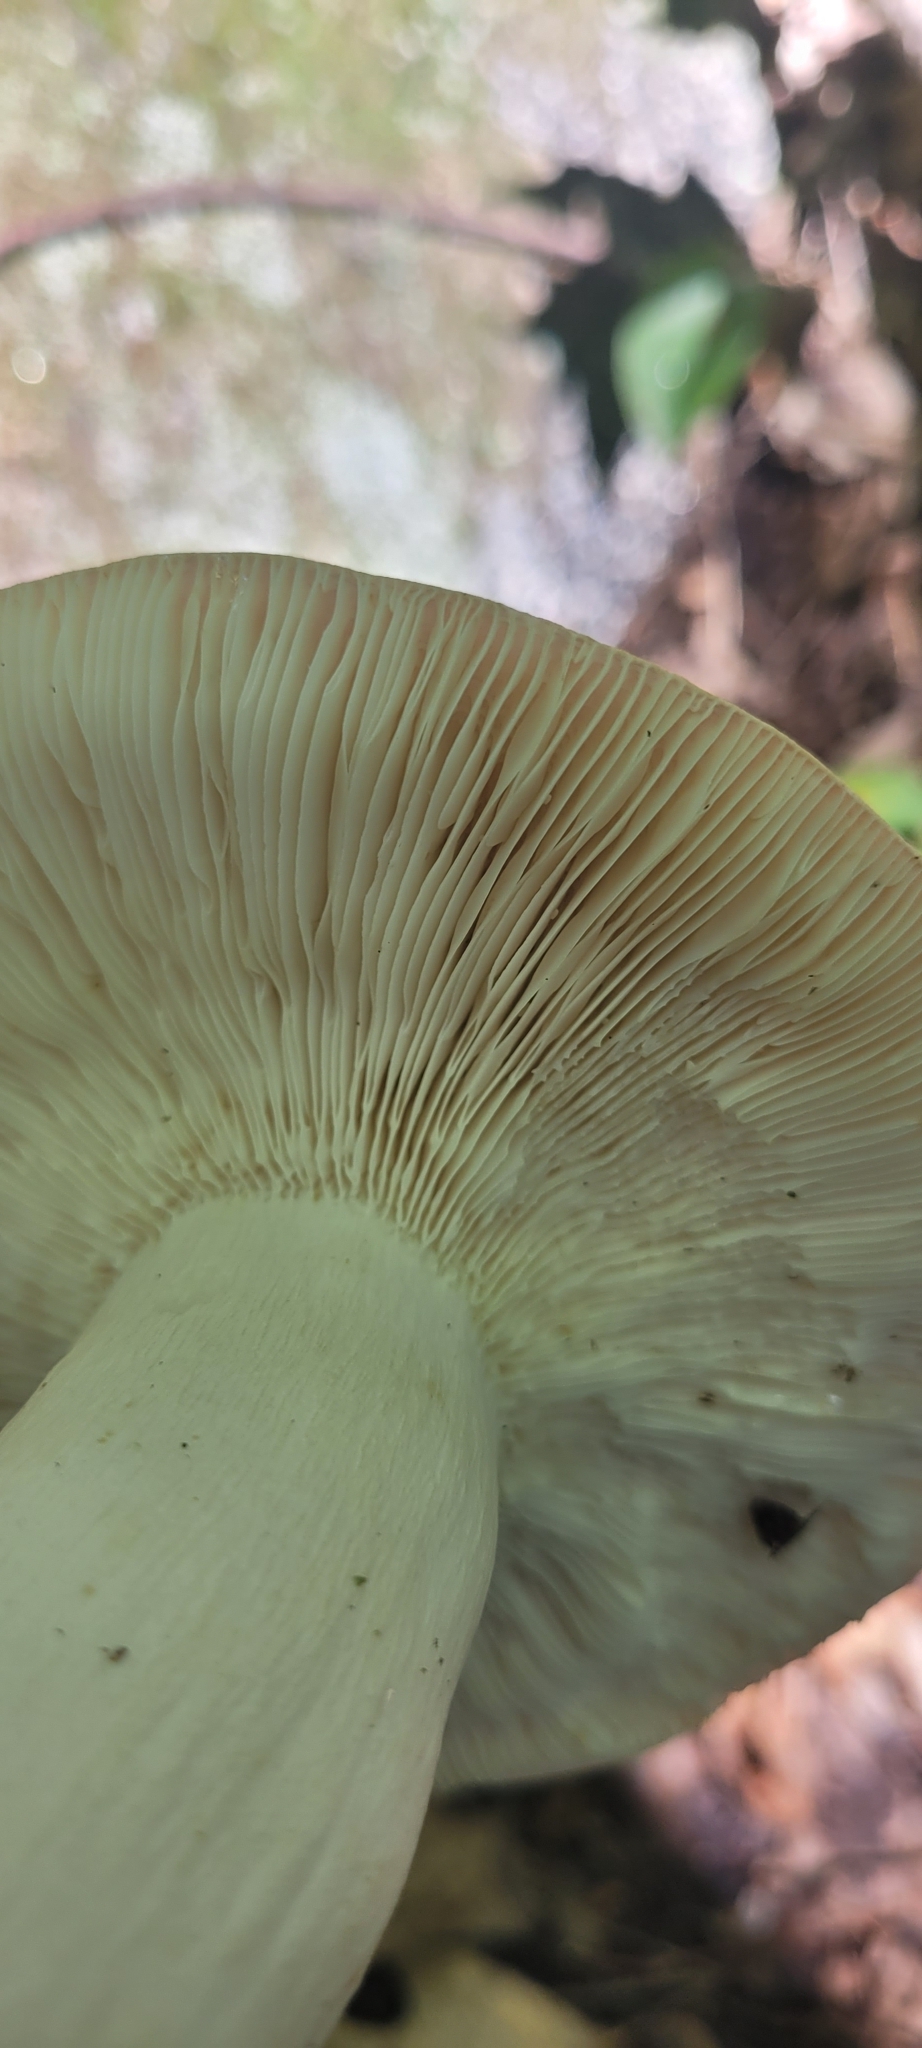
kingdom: Fungi
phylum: Basidiomycota
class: Agaricomycetes
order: Russulales
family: Russulaceae
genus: Russula
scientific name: Russula cyanoxantha
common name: Charcoal burner
